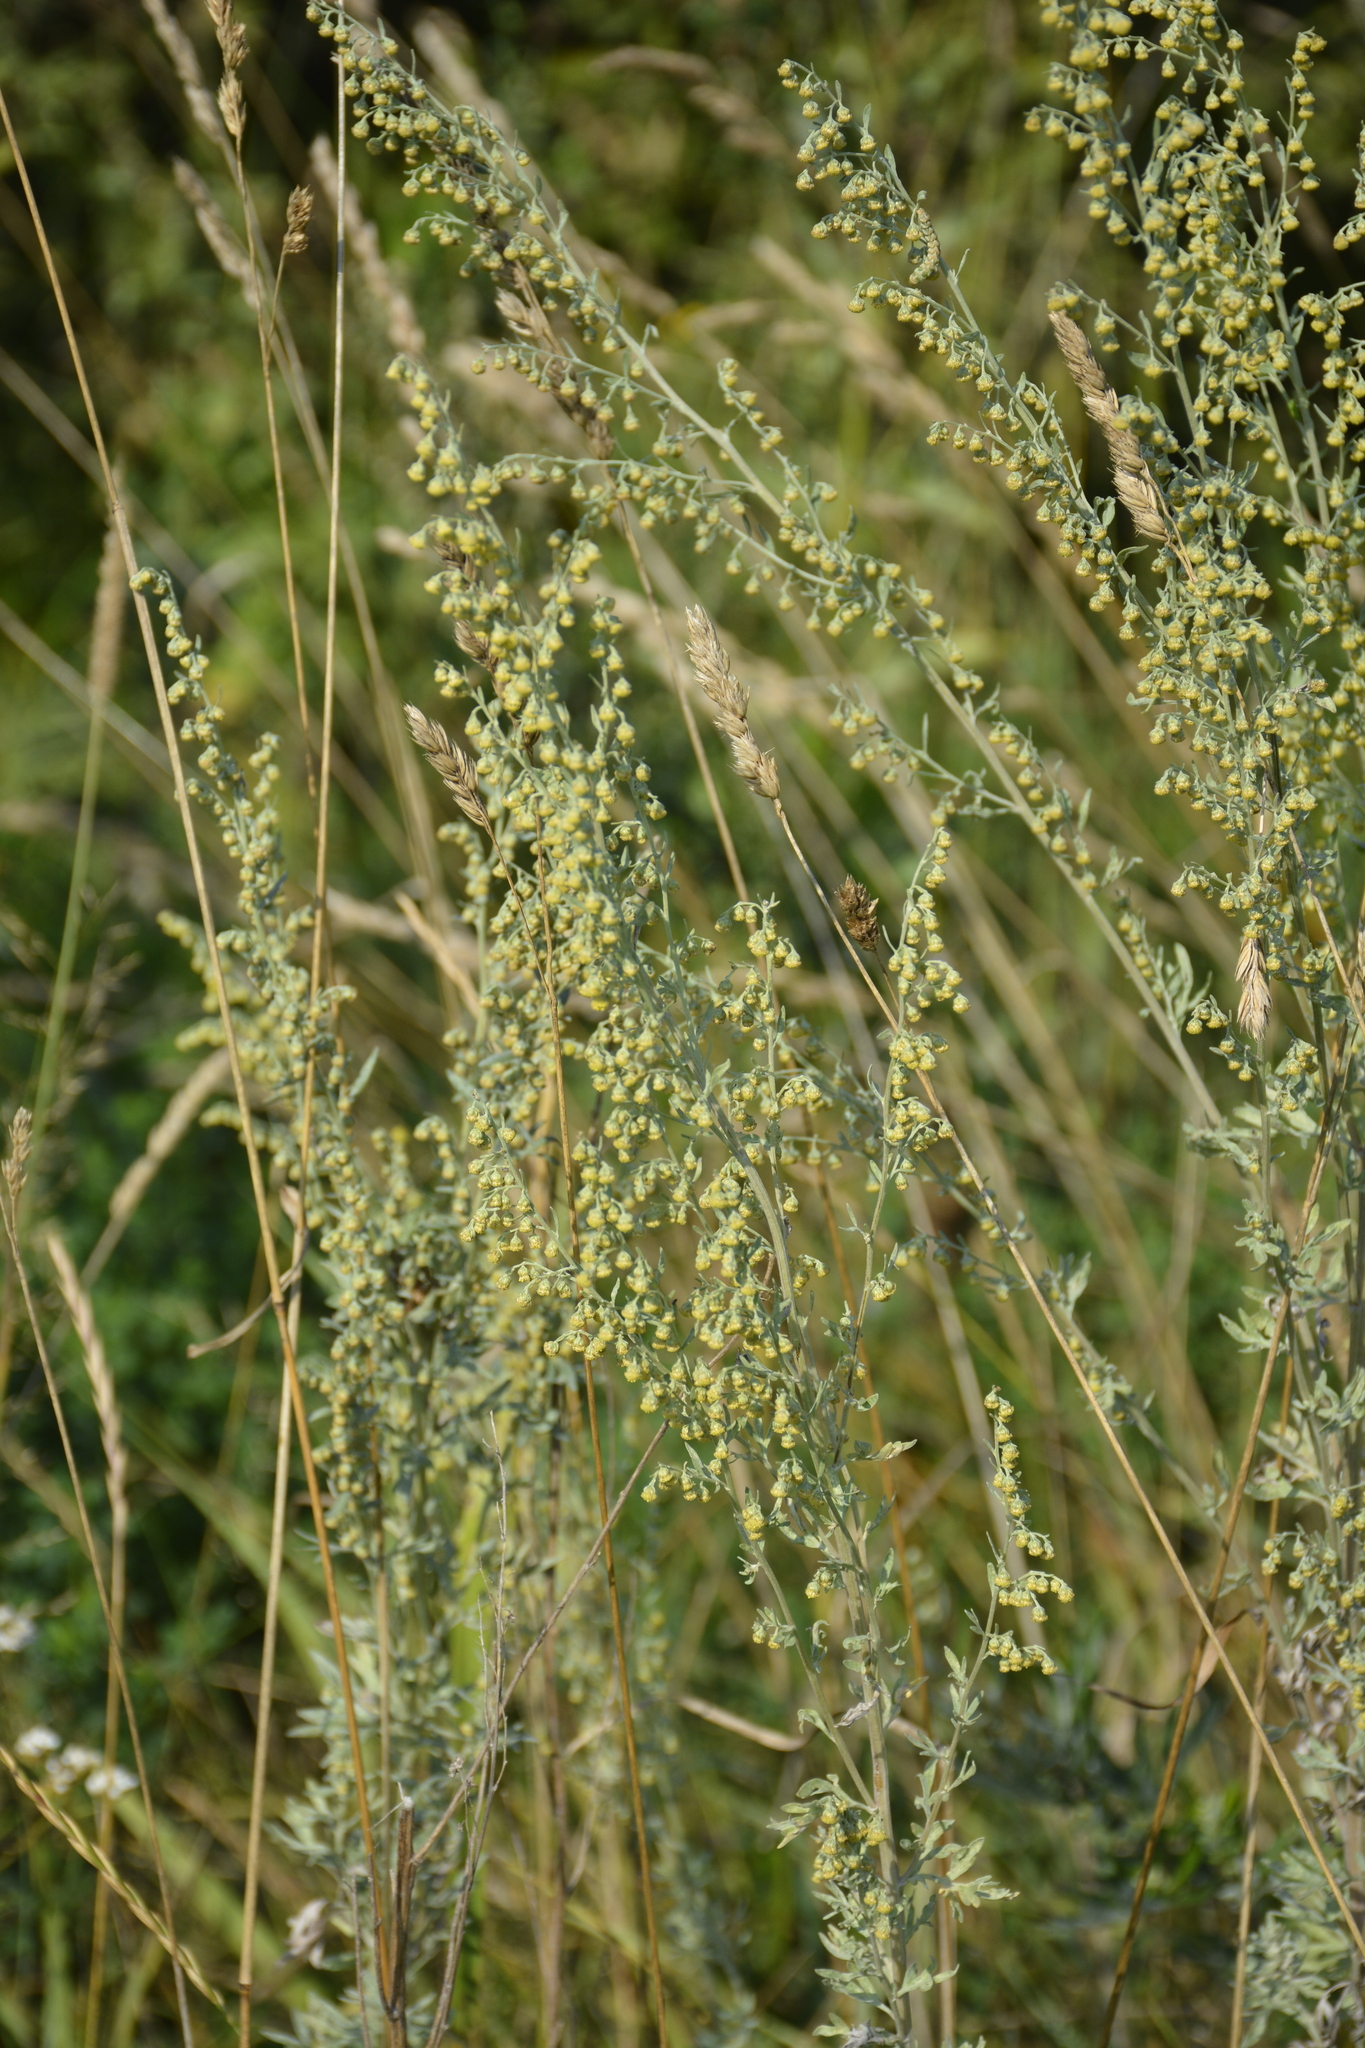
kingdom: Plantae
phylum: Tracheophyta
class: Magnoliopsida
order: Asterales
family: Asteraceae
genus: Artemisia
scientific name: Artemisia absinthium
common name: Wormwood
